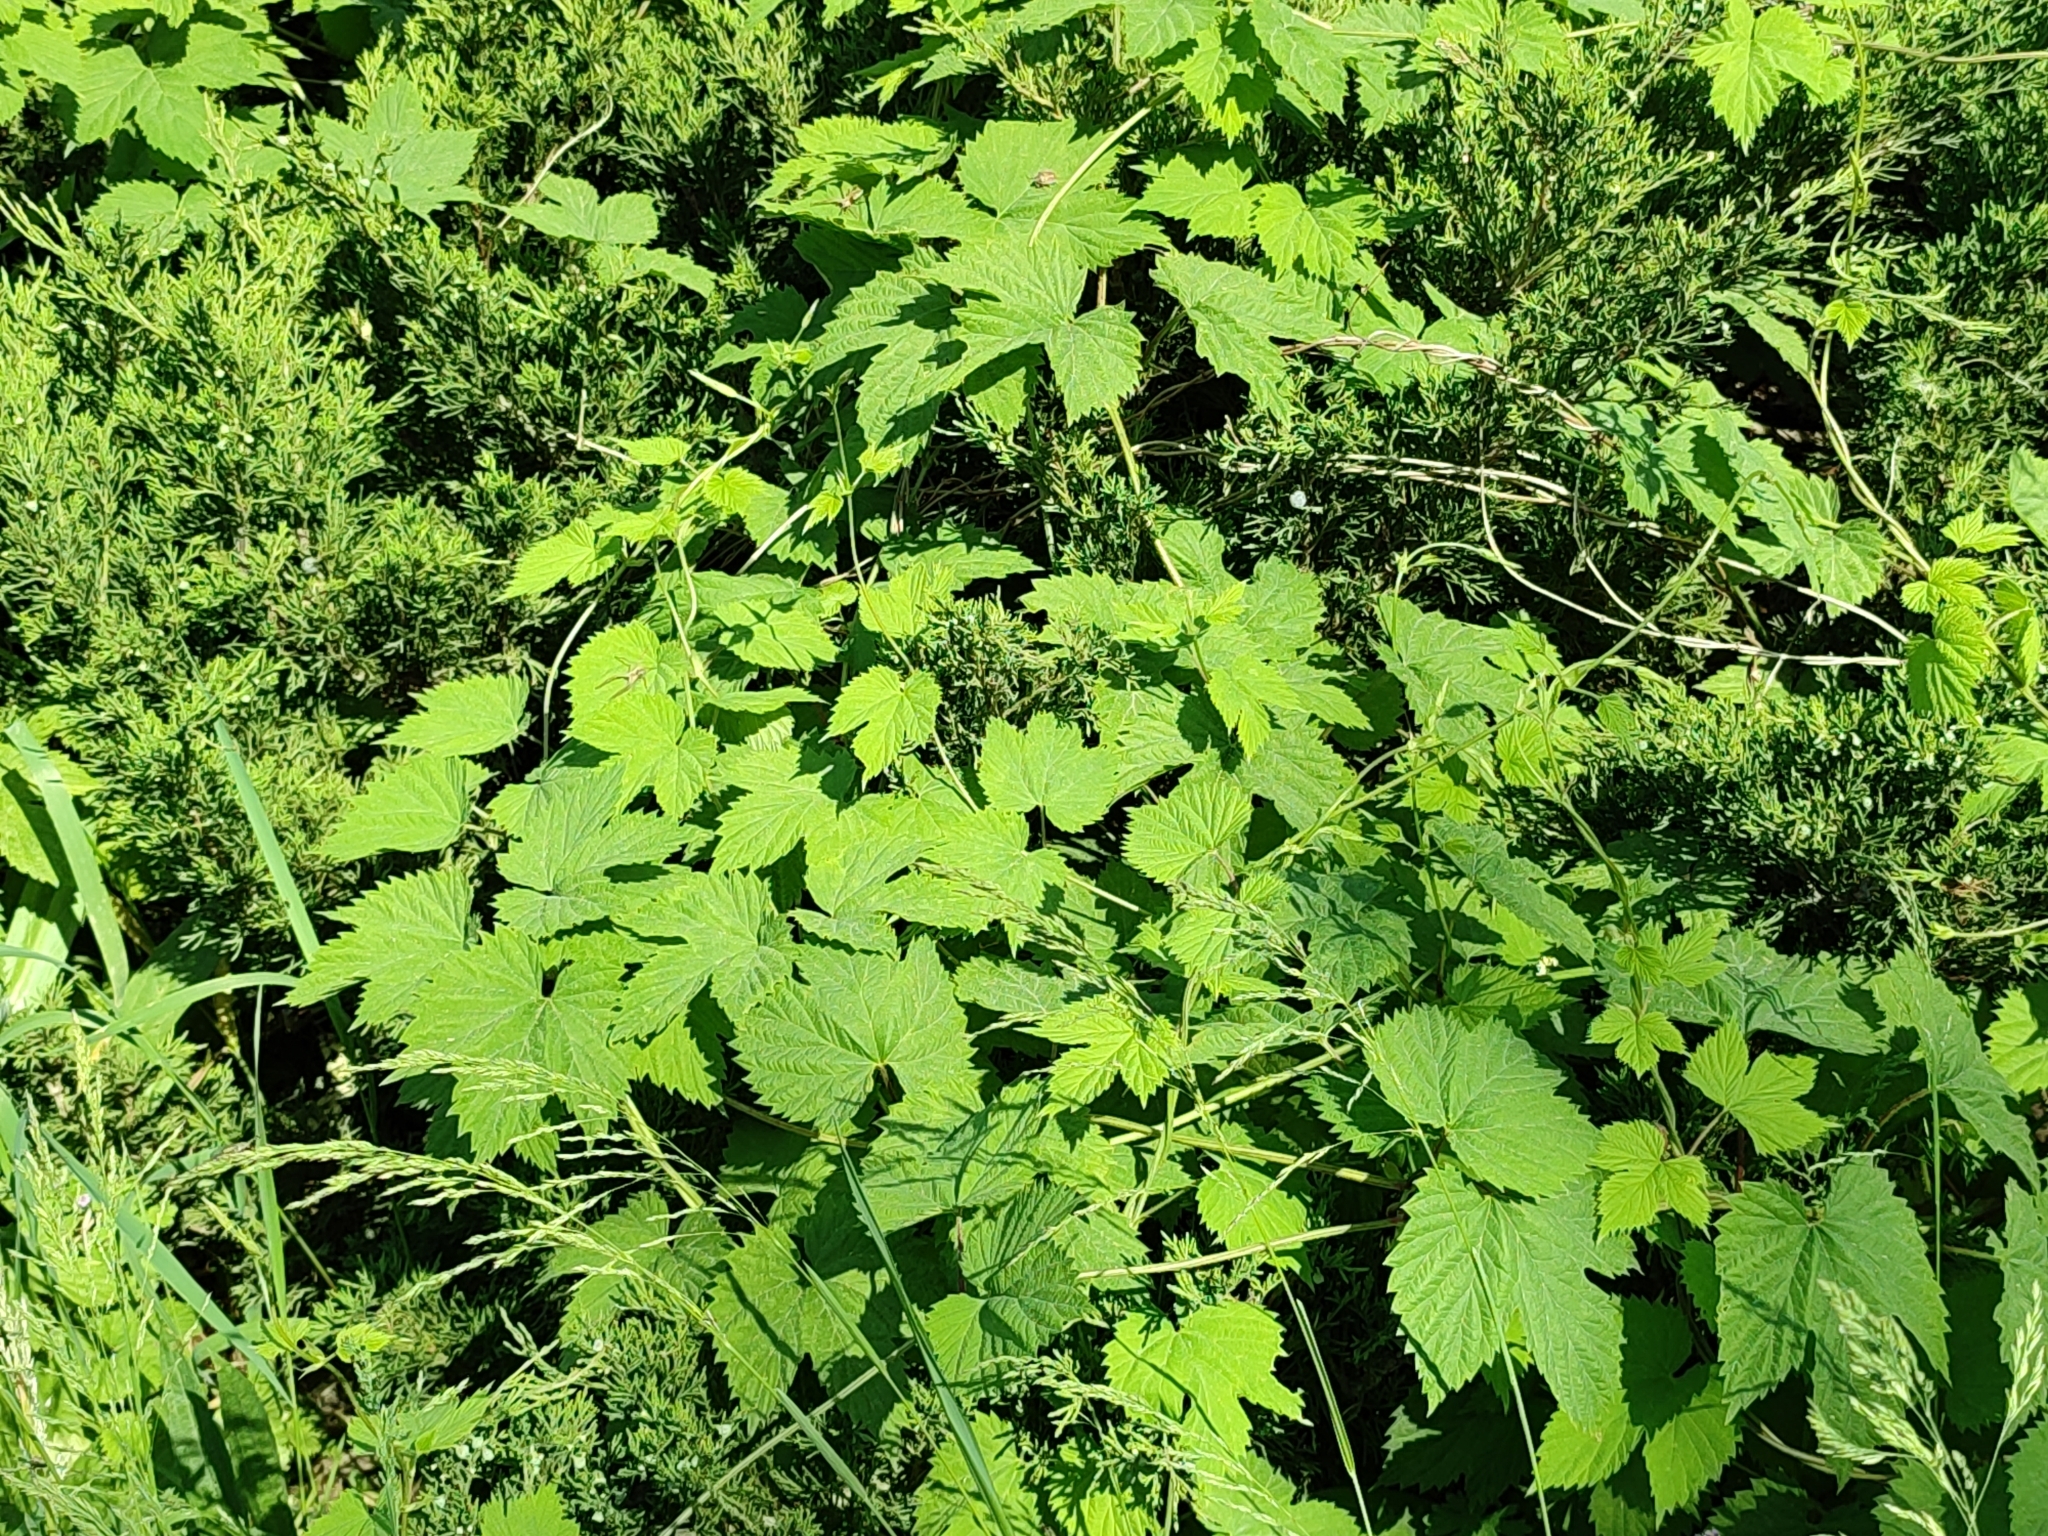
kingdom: Plantae
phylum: Tracheophyta
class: Magnoliopsida
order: Rosales
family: Cannabaceae
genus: Humulus
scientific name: Humulus lupulus
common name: Hop
